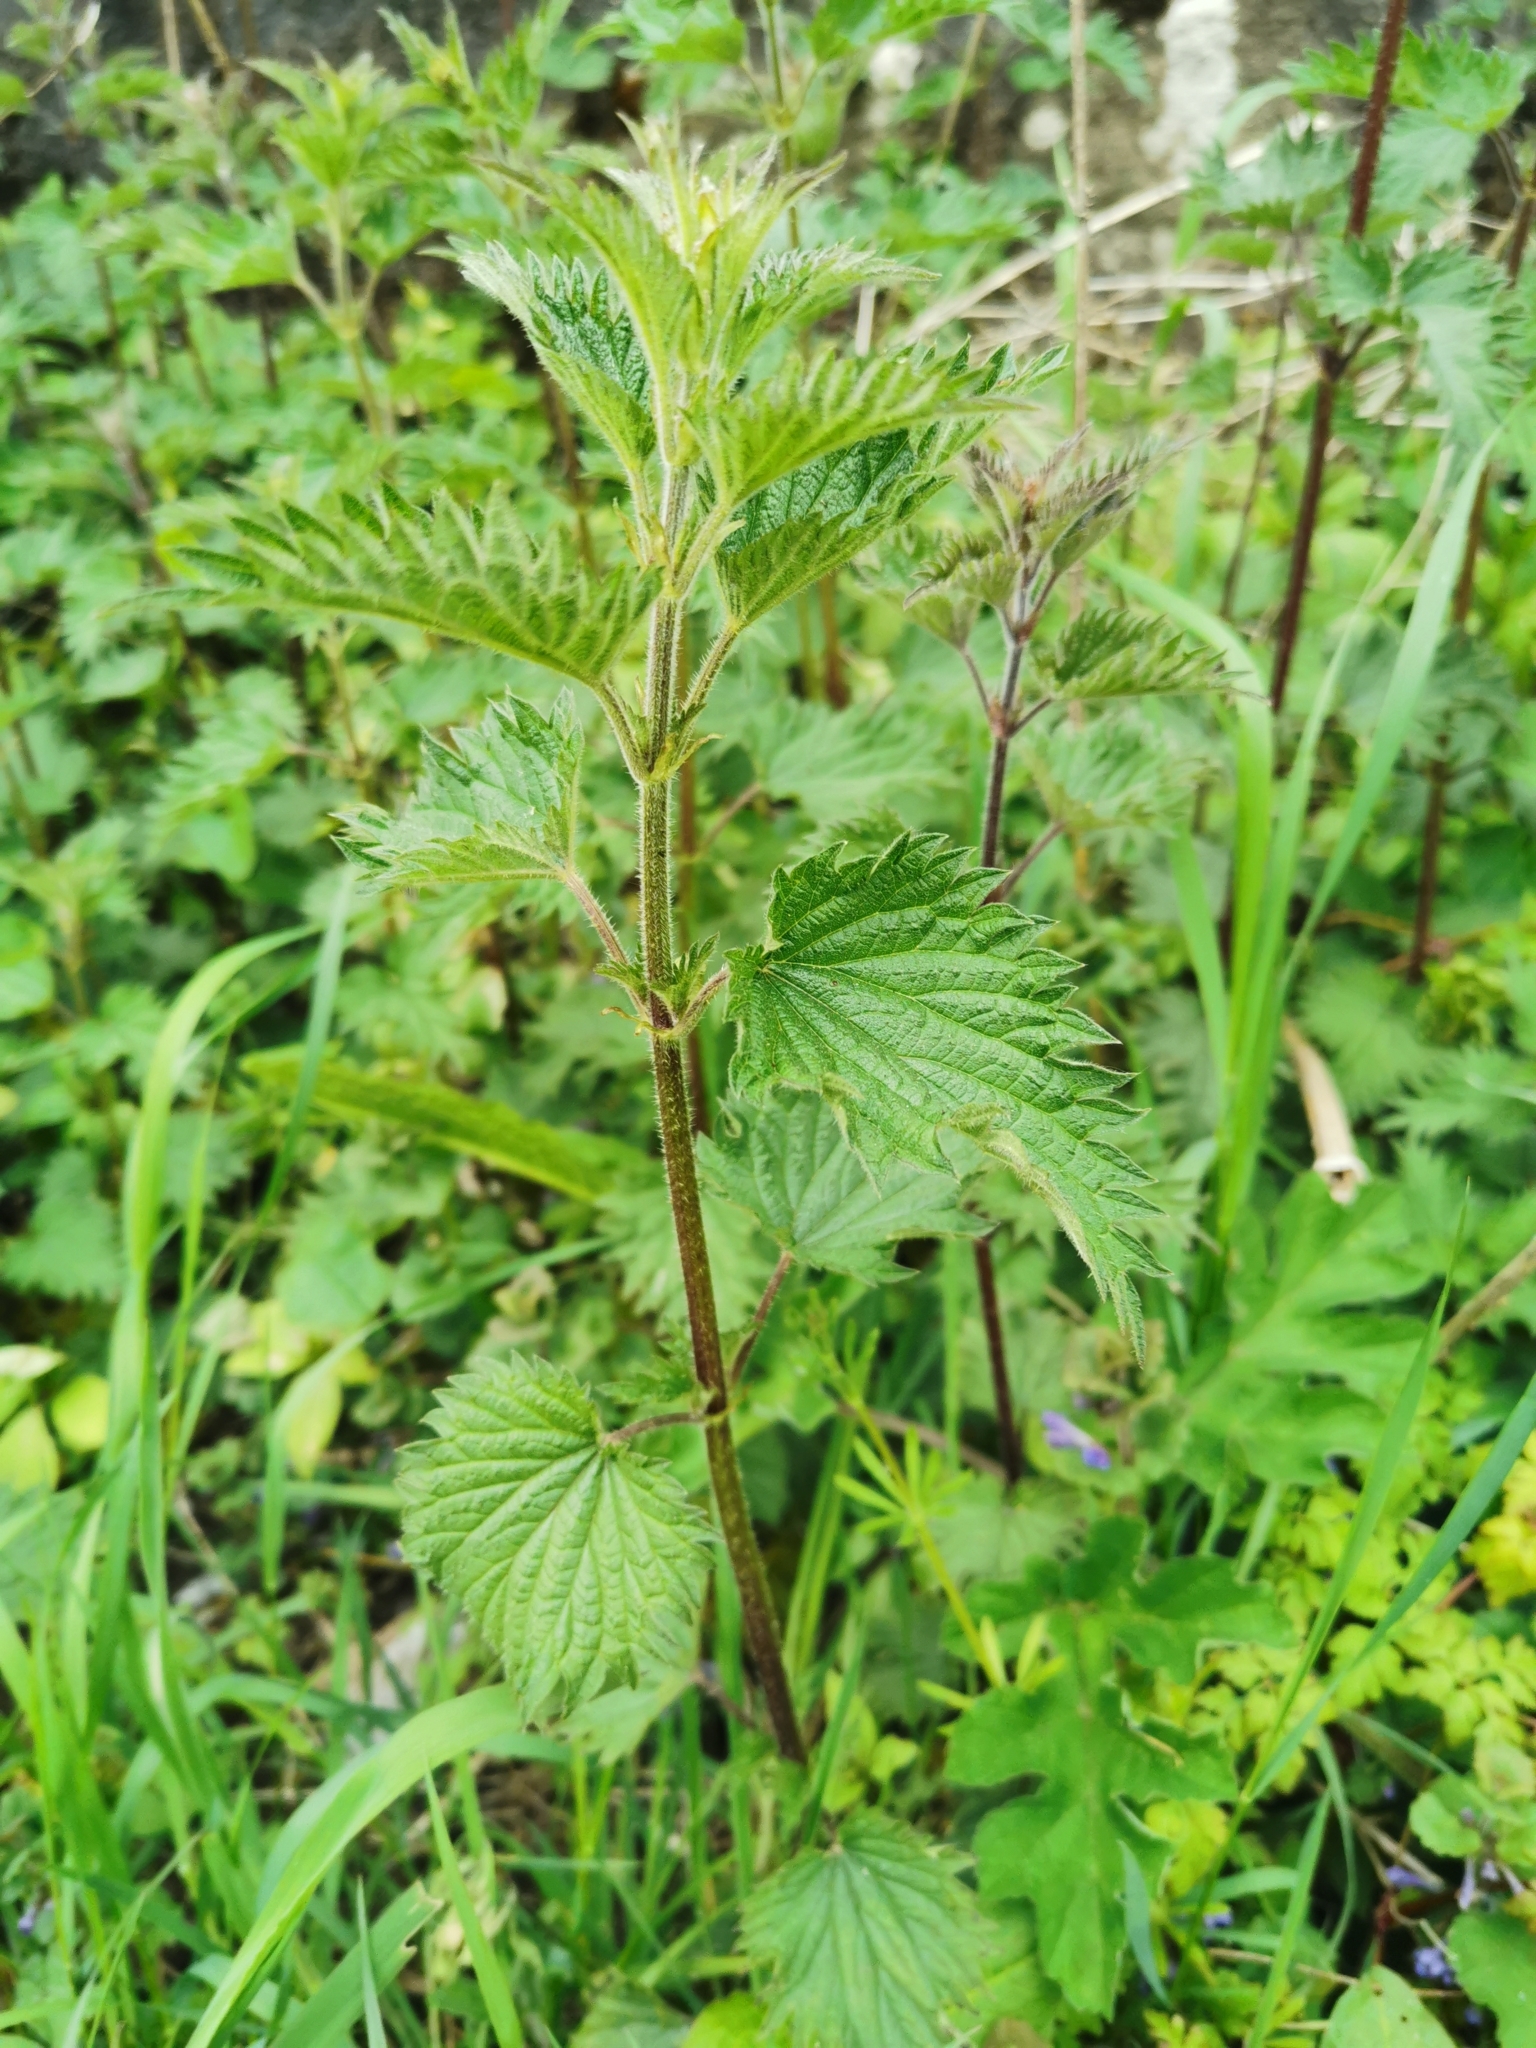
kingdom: Plantae
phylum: Tracheophyta
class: Magnoliopsida
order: Rosales
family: Urticaceae
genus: Urtica
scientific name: Urtica dioica
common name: Common nettle
